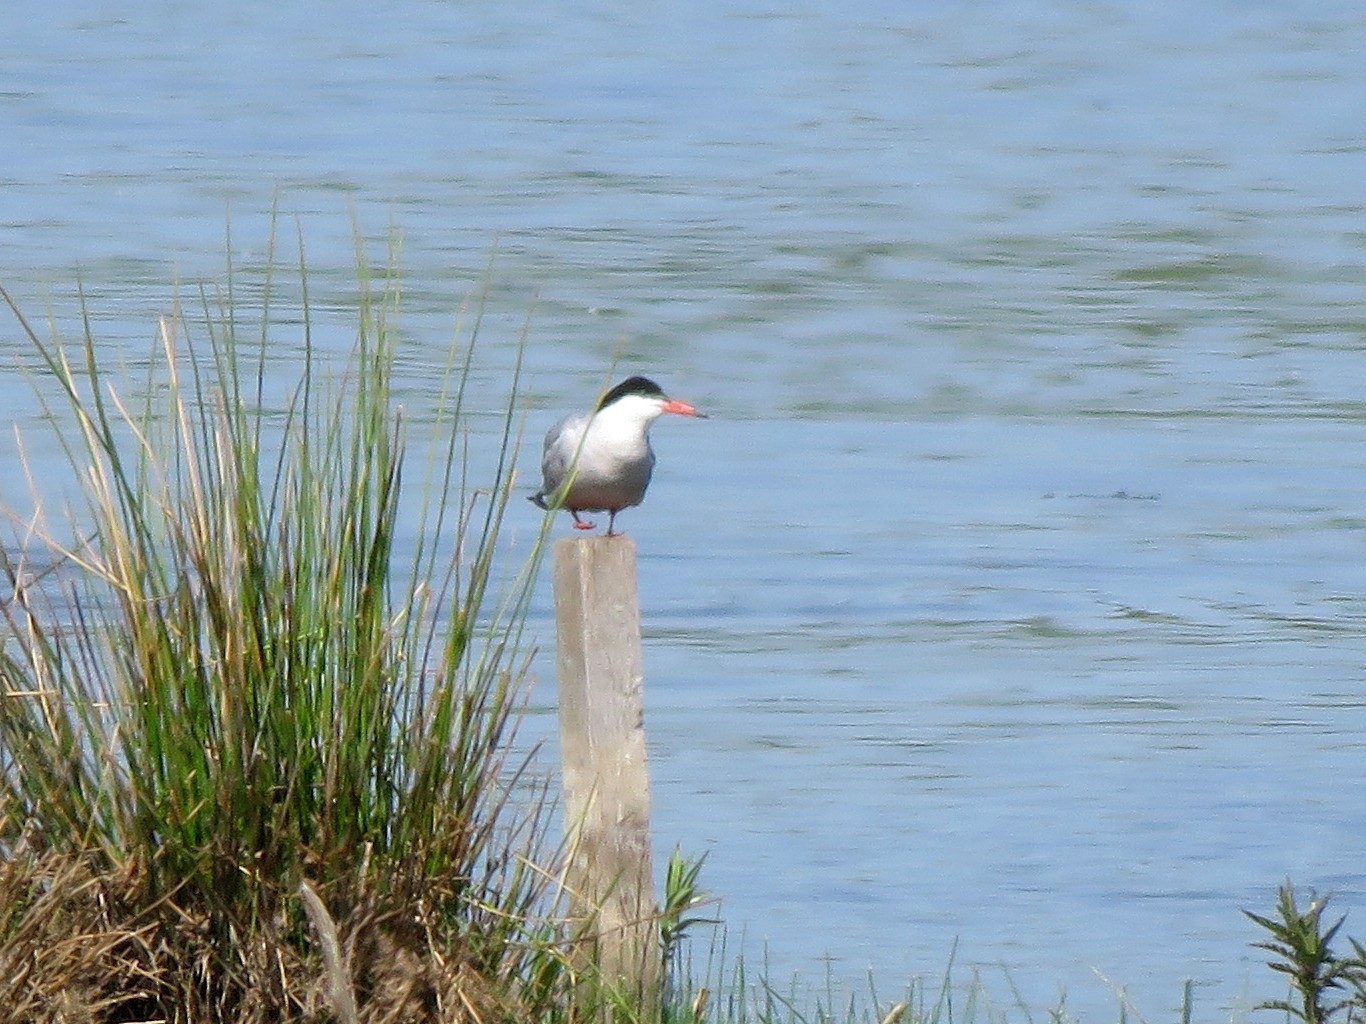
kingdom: Animalia
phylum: Chordata
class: Aves
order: Charadriiformes
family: Laridae
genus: Sterna
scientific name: Sterna hirundo
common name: Common tern
